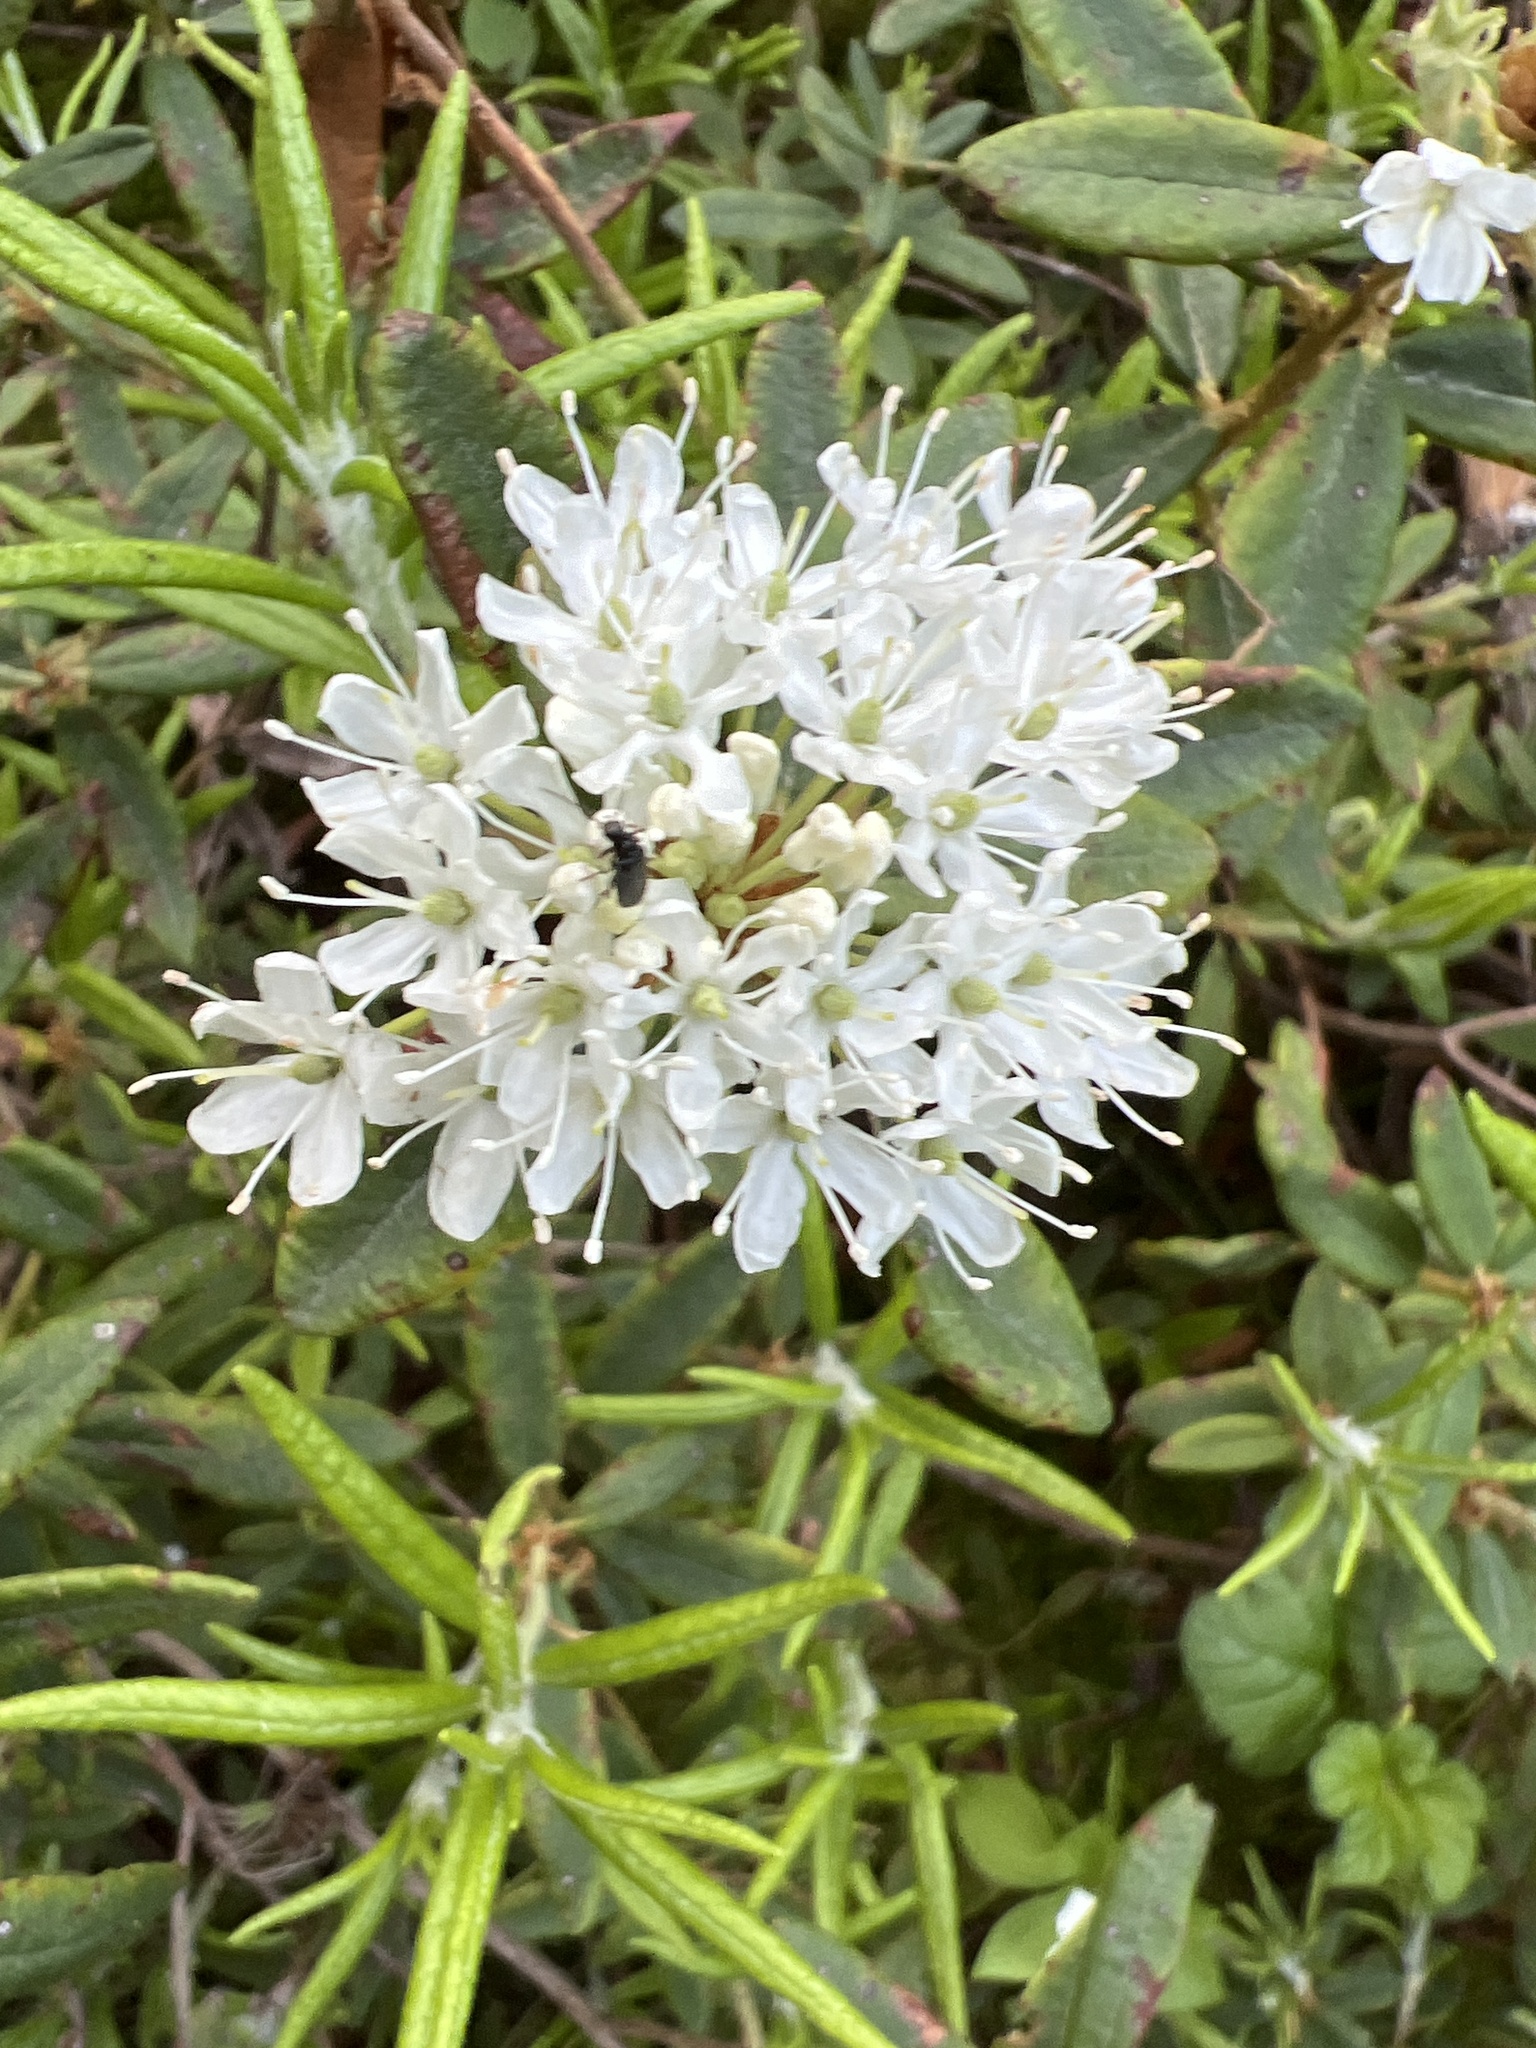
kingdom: Plantae
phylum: Tracheophyta
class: Magnoliopsida
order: Ericales
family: Ericaceae
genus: Rhododendron
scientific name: Rhododendron groenlandicum
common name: Bog labrador tea
